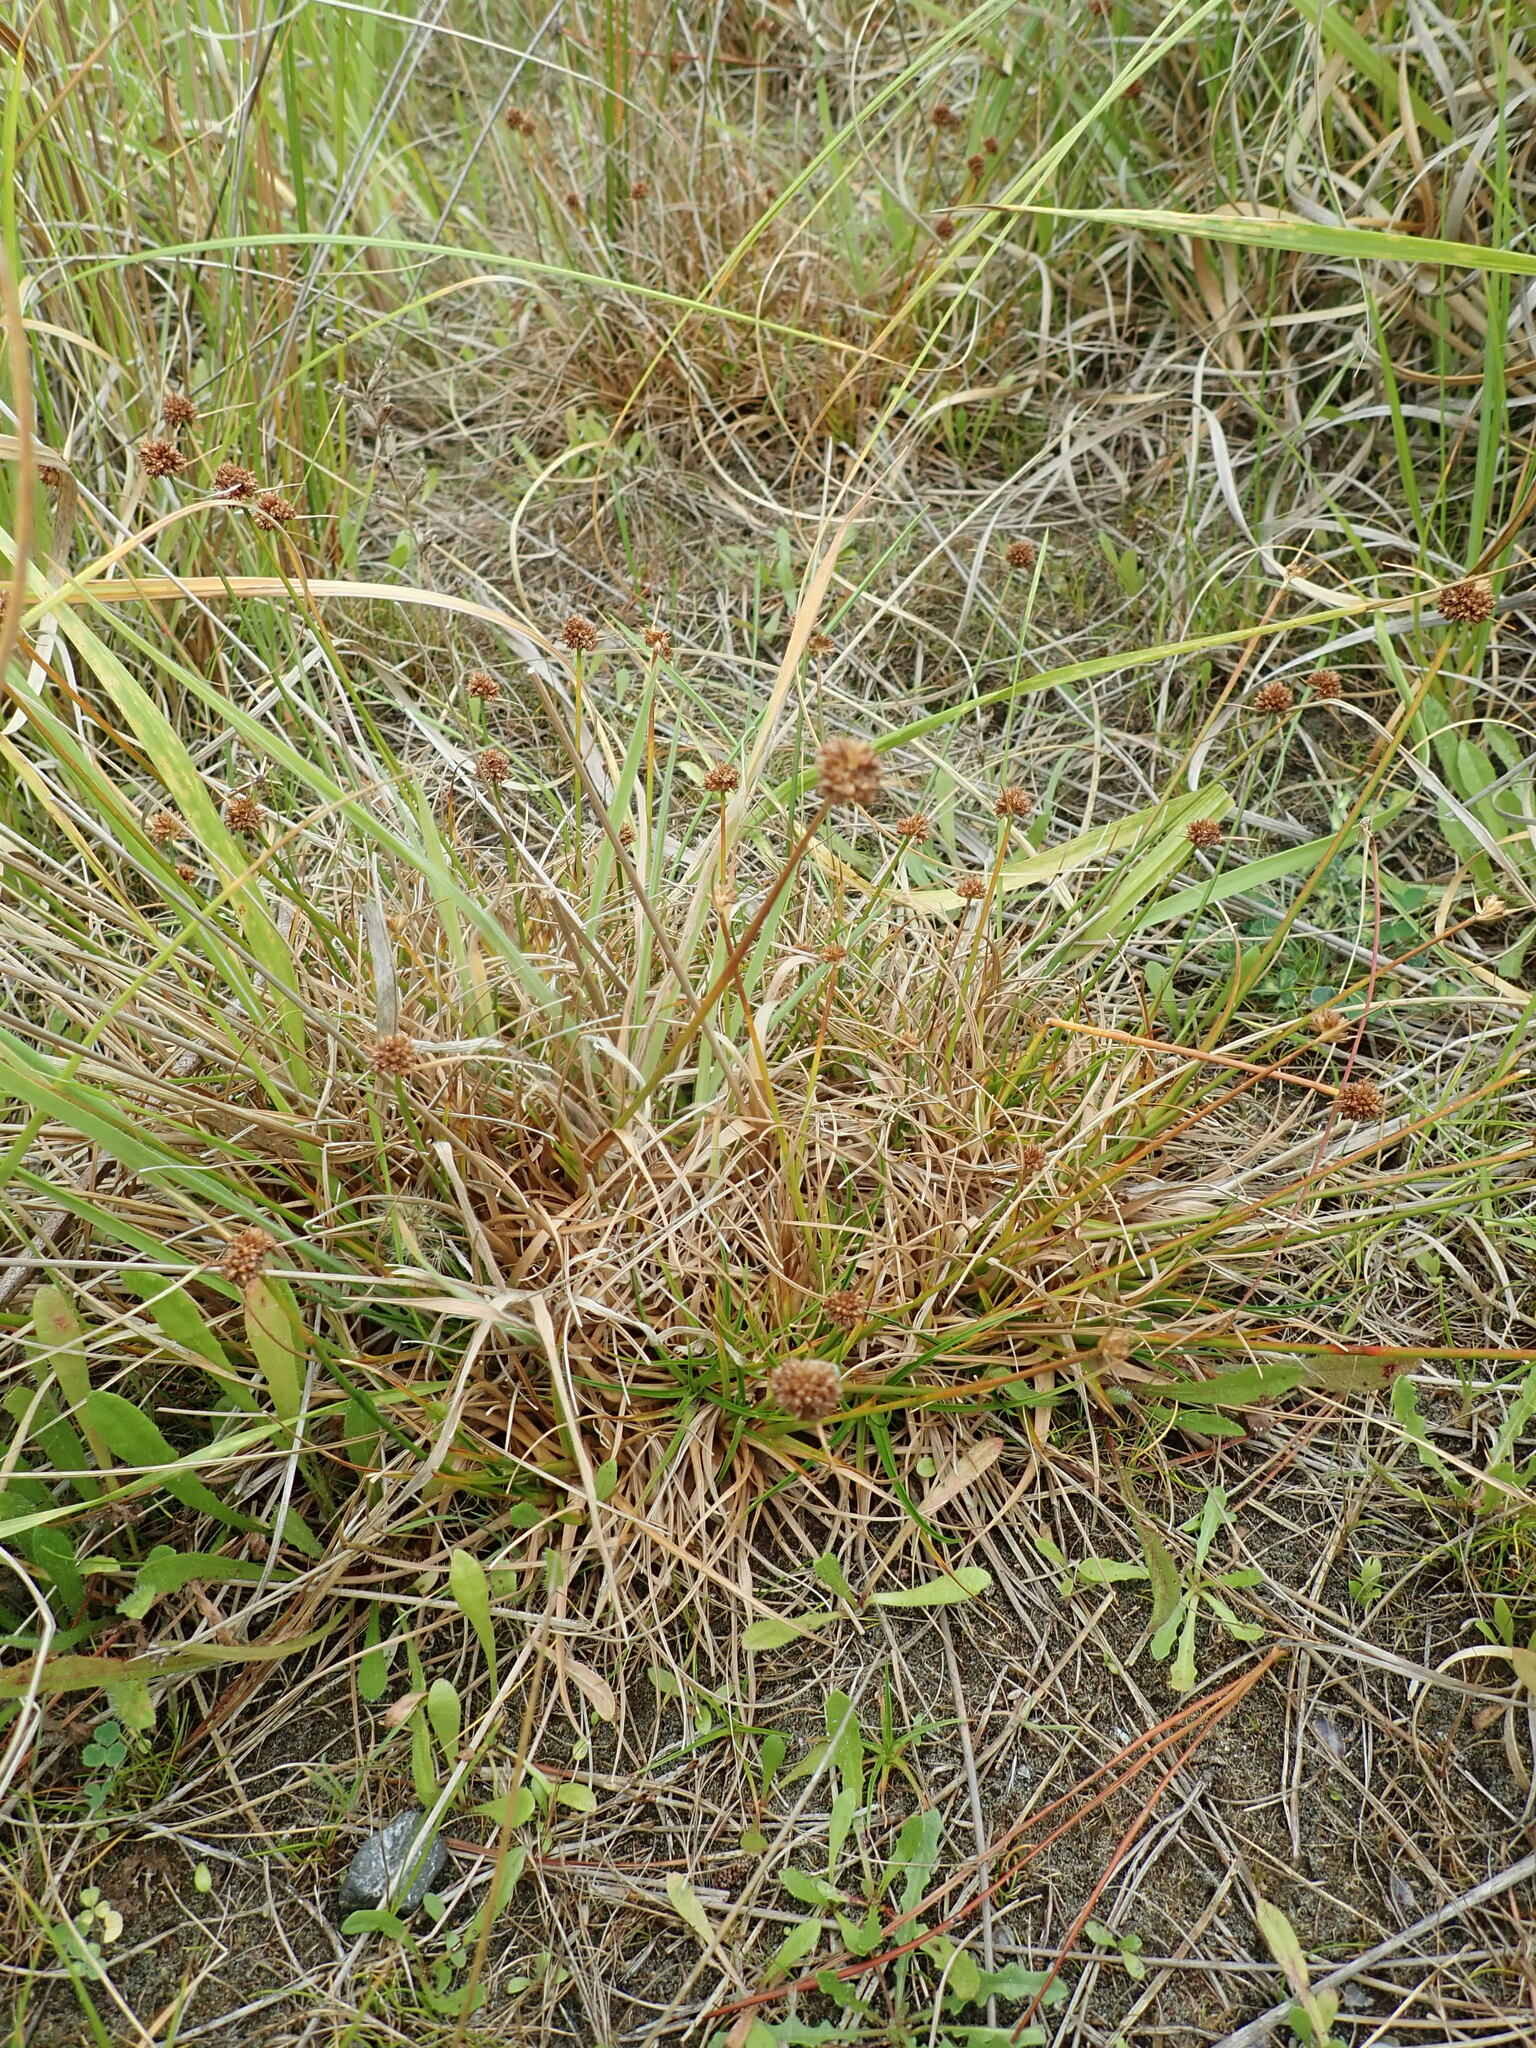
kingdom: Plantae
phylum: Tracheophyta
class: Liliopsida
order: Poales
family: Juncaceae
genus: Juncus
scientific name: Juncus caespiticius
